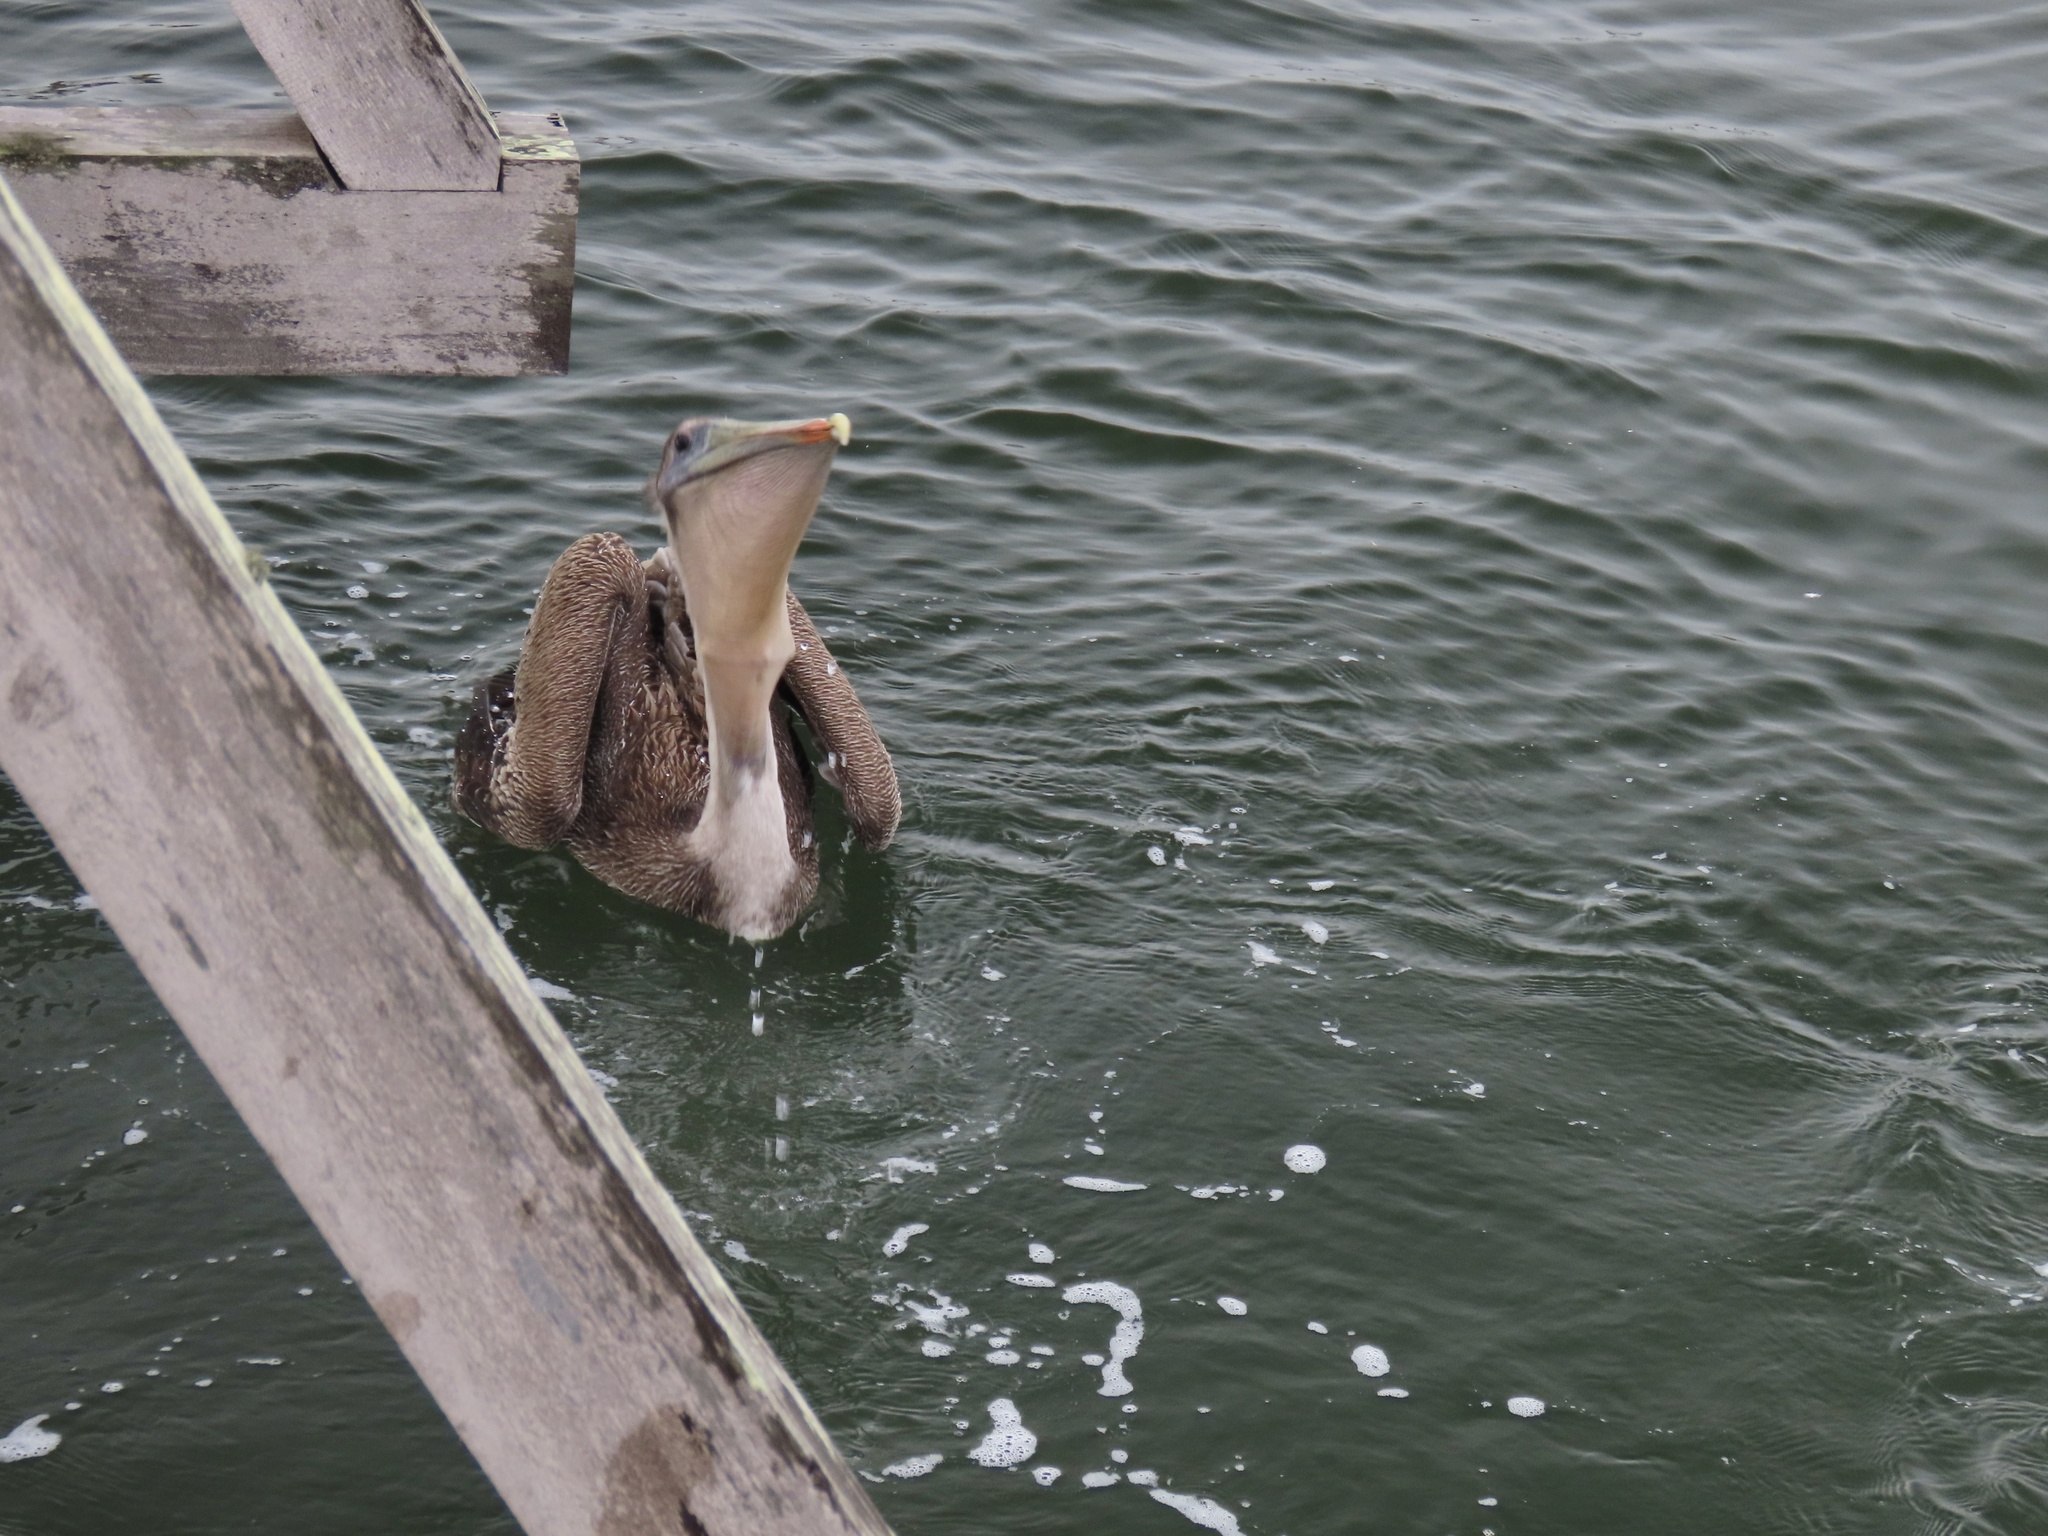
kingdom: Animalia
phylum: Chordata
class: Aves
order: Pelecaniformes
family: Pelecanidae
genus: Pelecanus
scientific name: Pelecanus occidentalis
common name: Brown pelican
